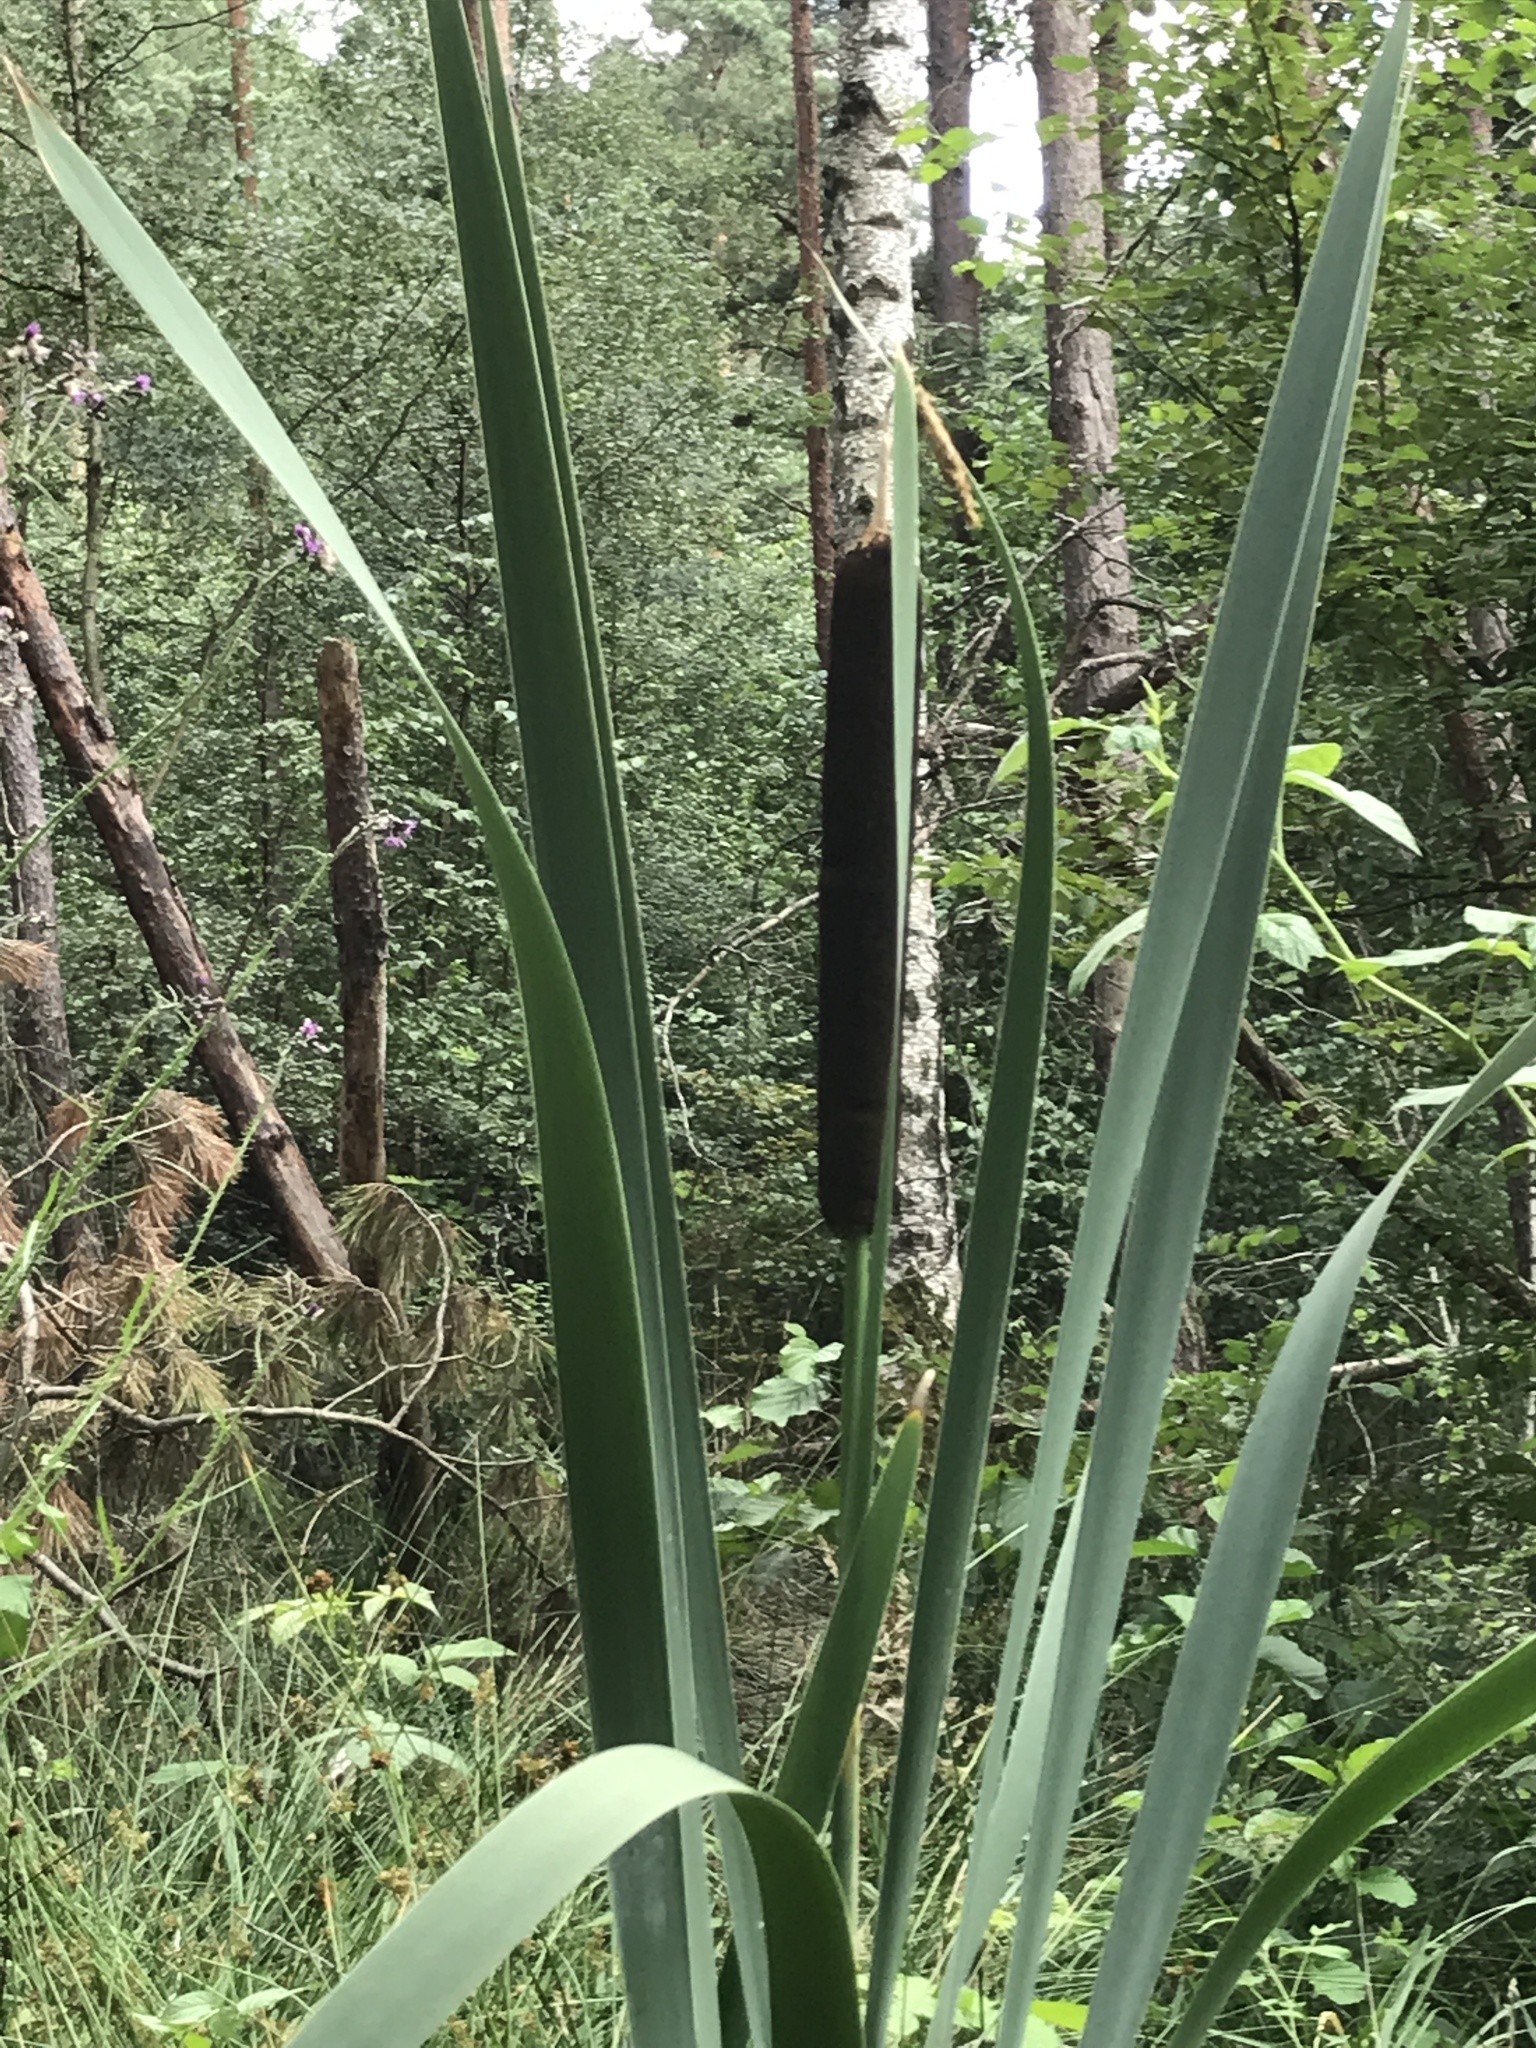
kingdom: Plantae
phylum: Tracheophyta
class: Liliopsida
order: Poales
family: Typhaceae
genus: Typha
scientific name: Typha latifolia
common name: Broadleaf cattail
